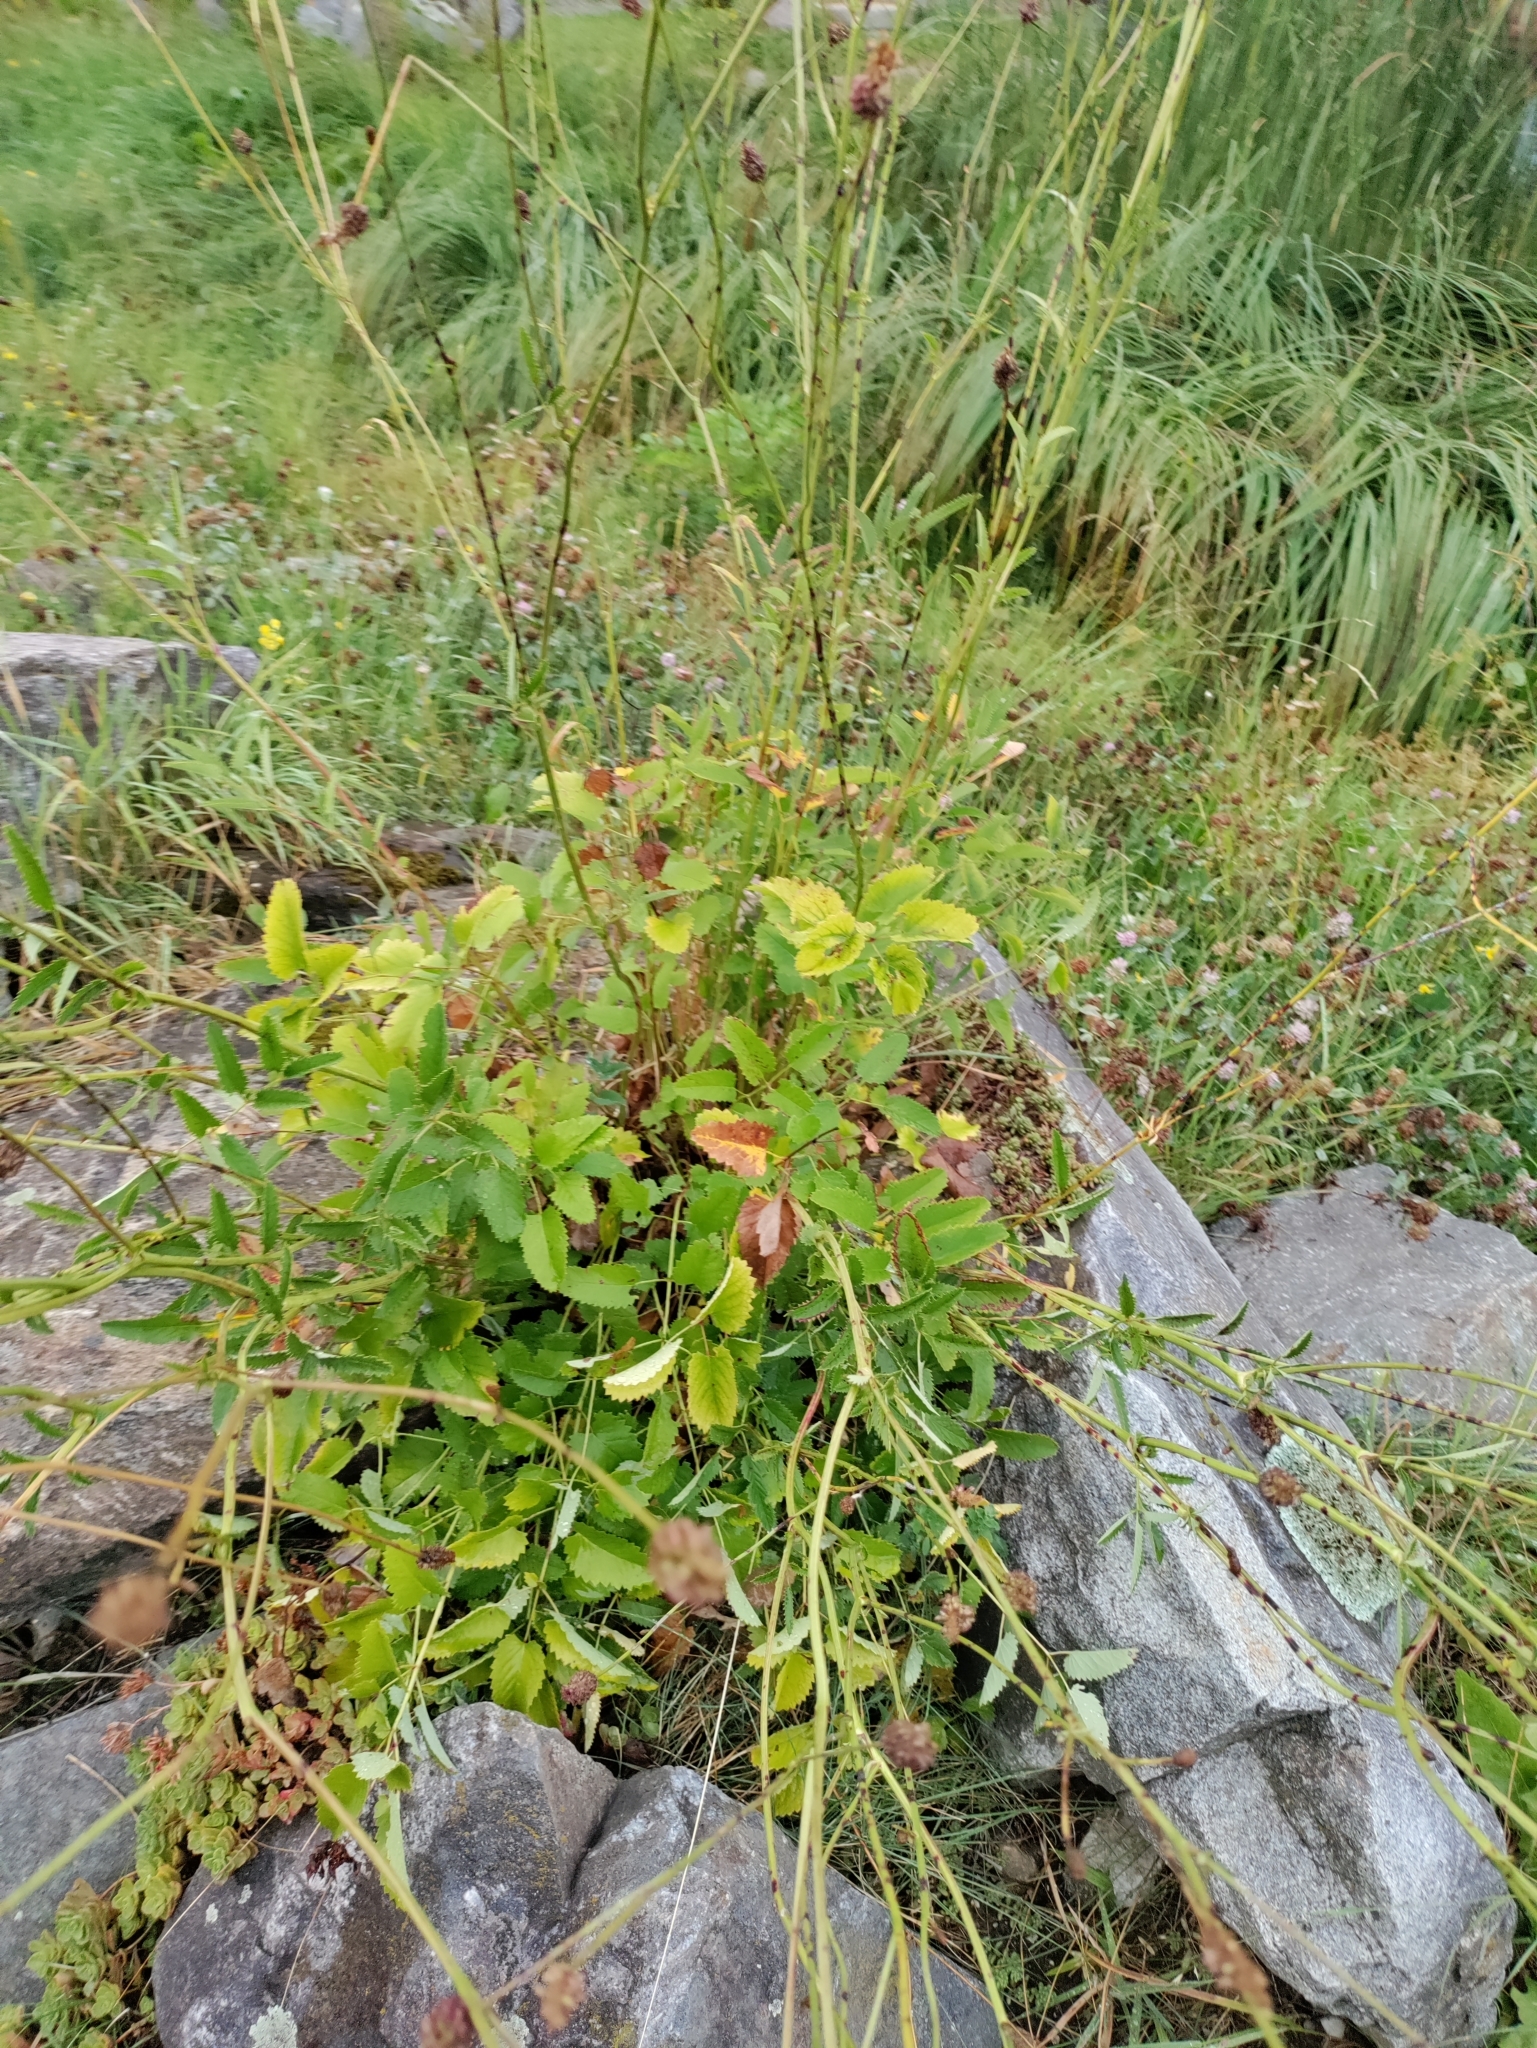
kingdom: Plantae
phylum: Tracheophyta
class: Magnoliopsida
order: Rosales
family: Rosaceae
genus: Sanguisorba
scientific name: Sanguisorba officinalis
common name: Great burnet
